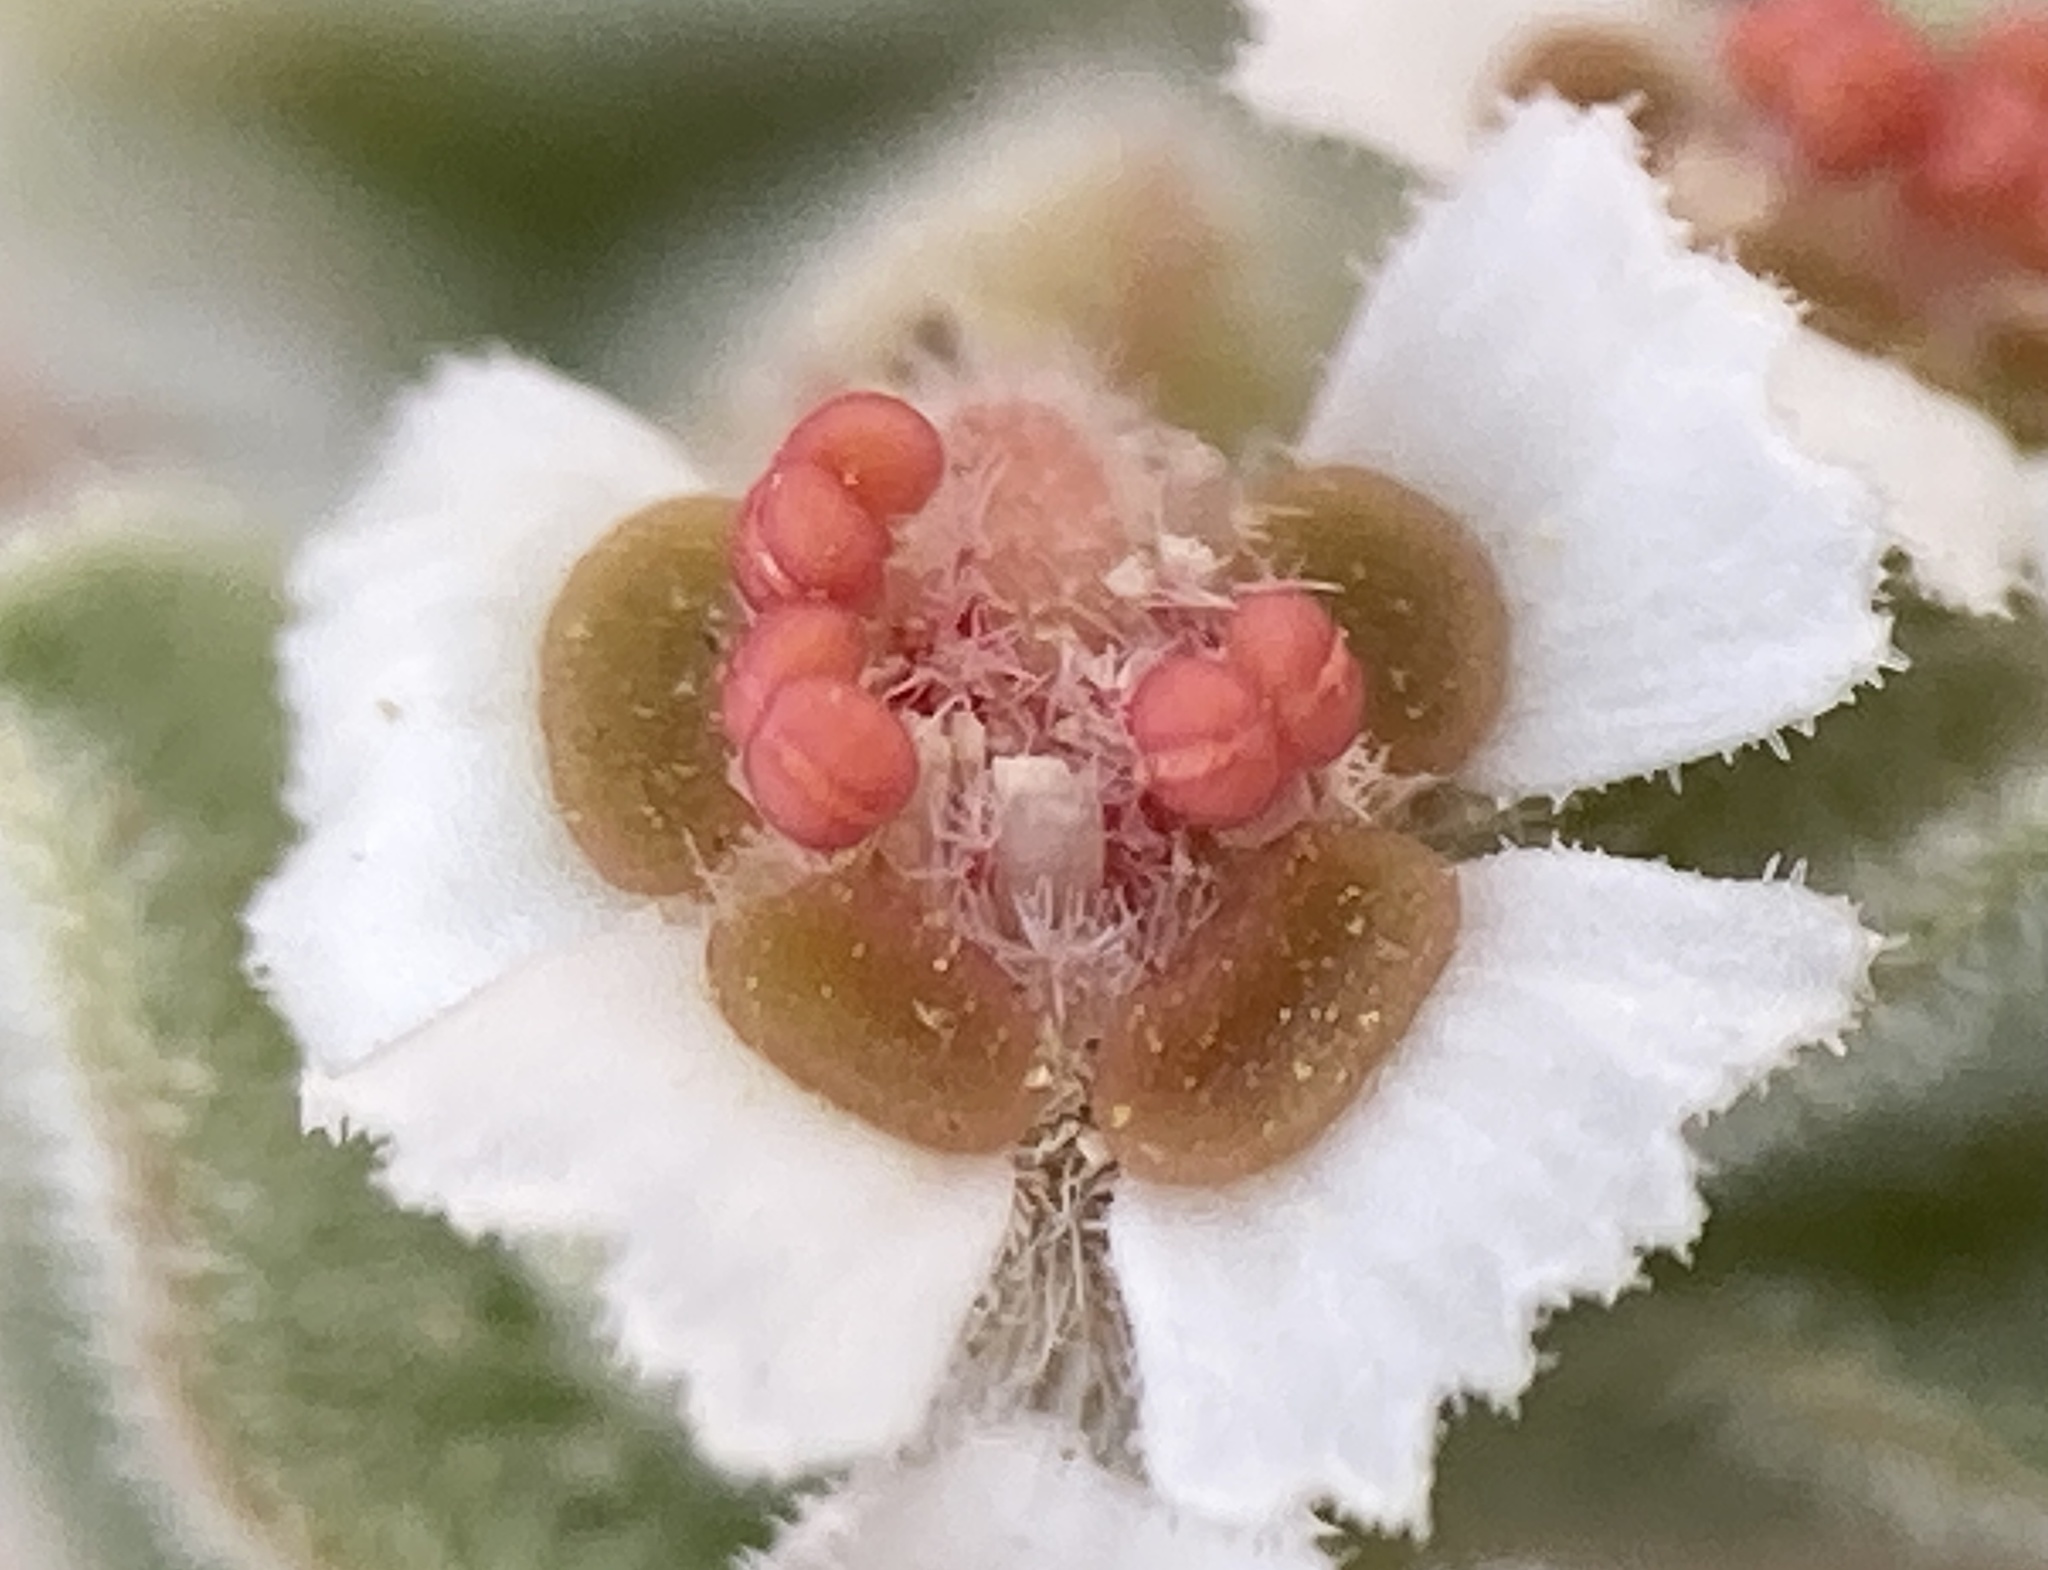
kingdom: Plantae
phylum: Tracheophyta
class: Magnoliopsida
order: Malpighiales
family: Euphorbiaceae
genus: Euphorbia
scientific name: Euphorbia vallis-mortae
